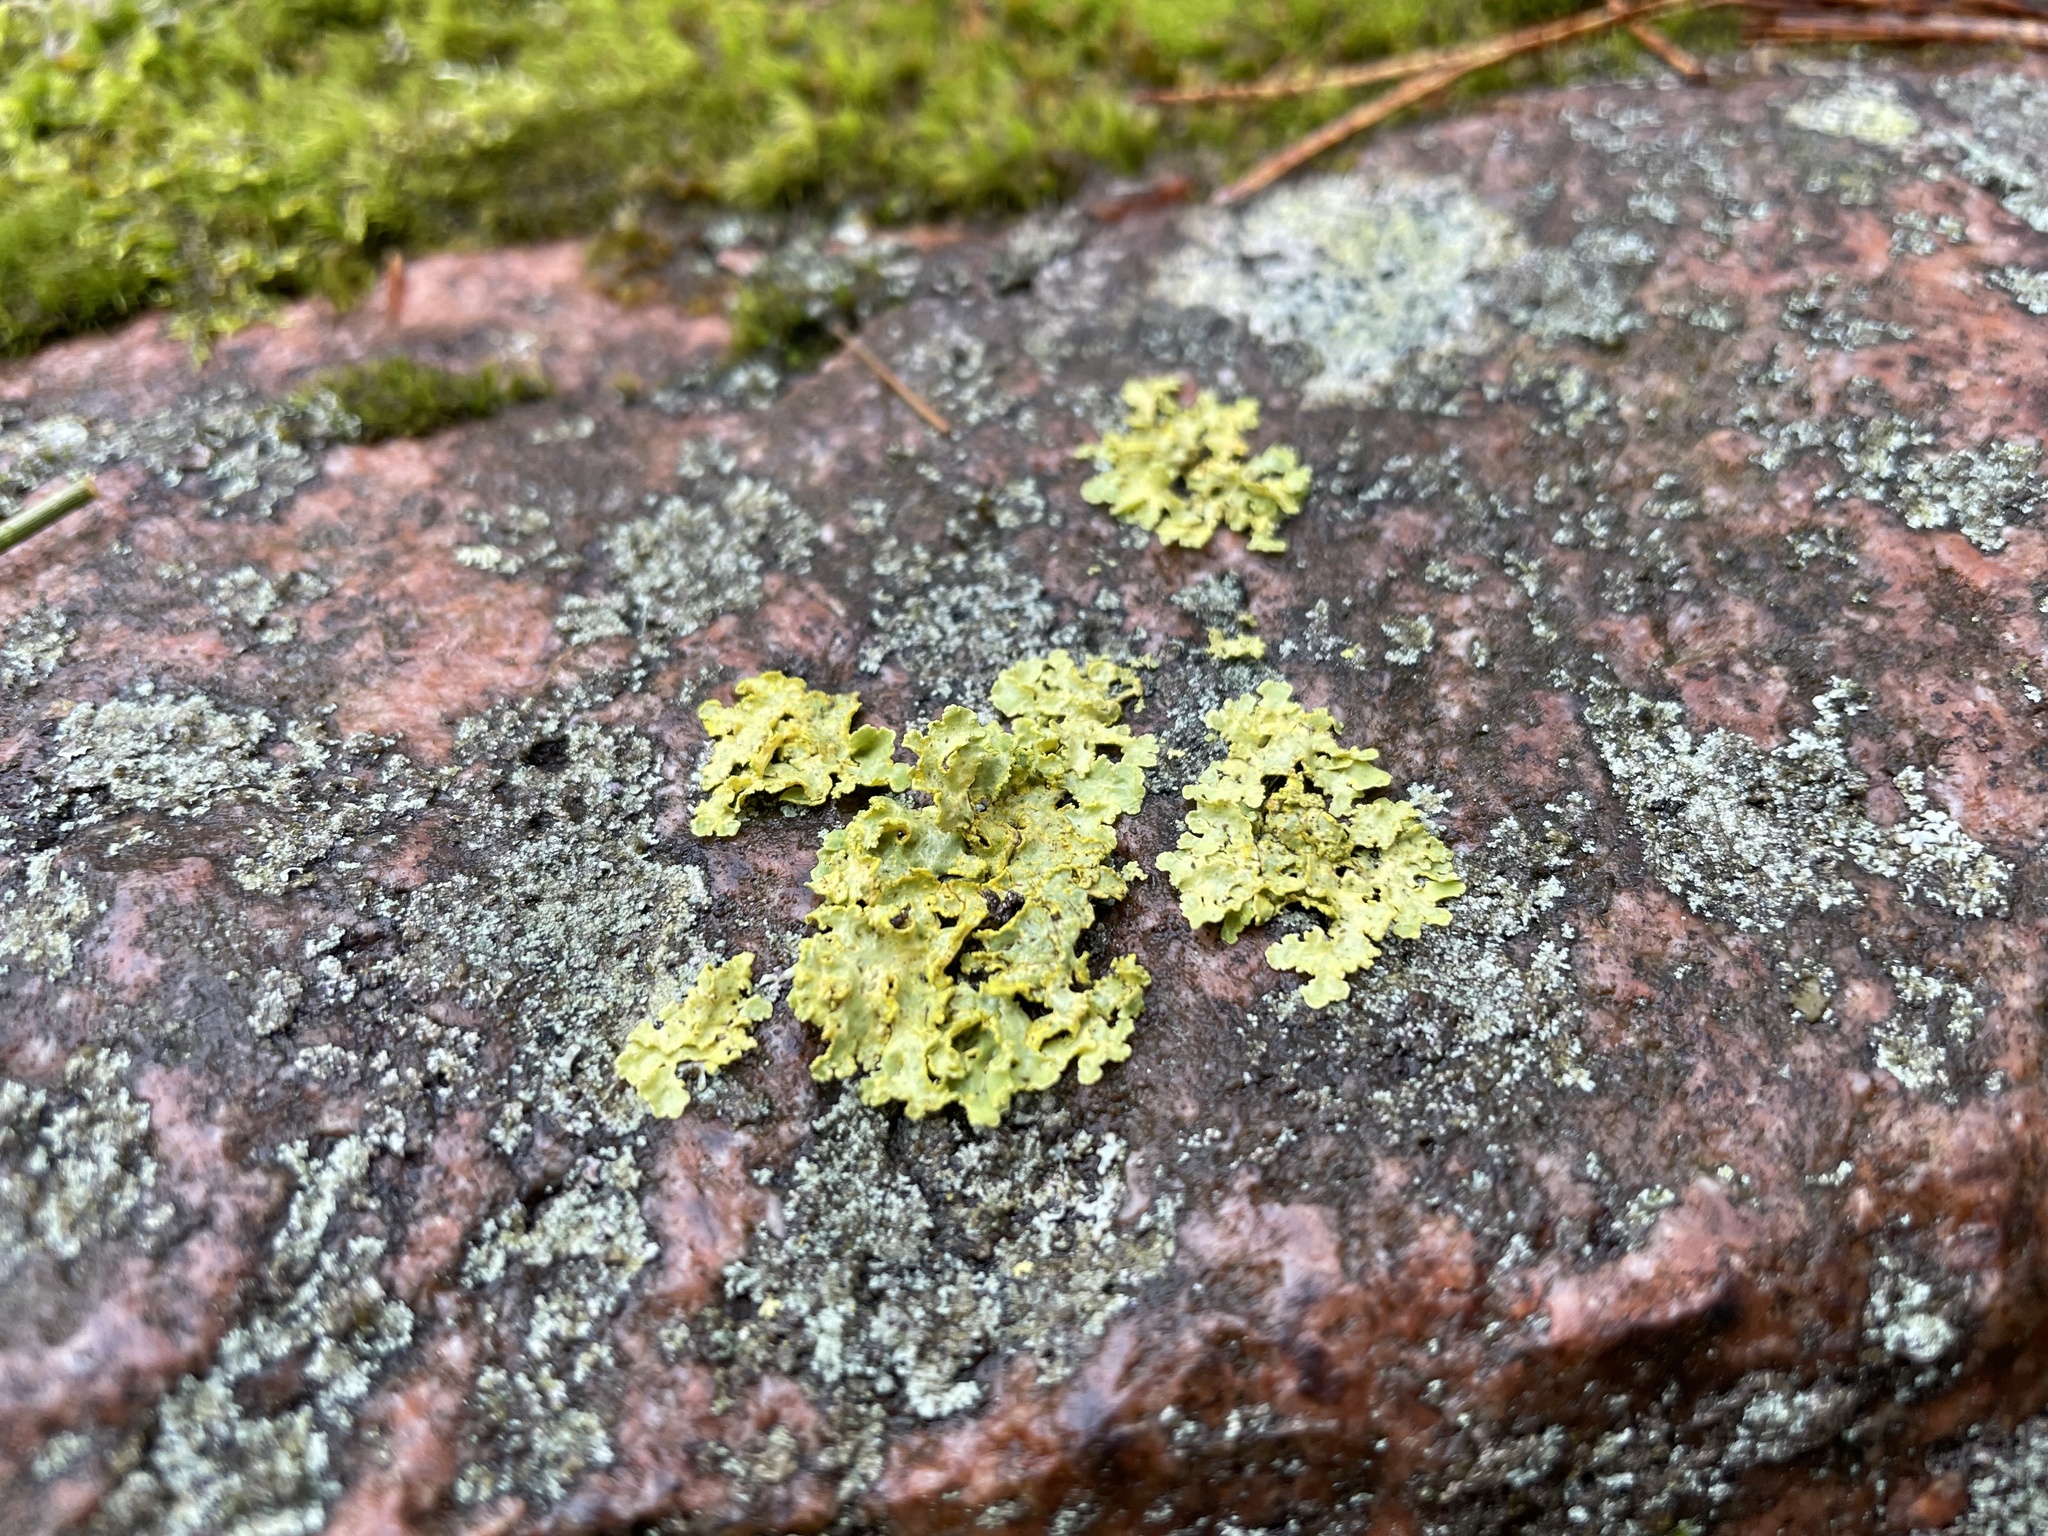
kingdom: Fungi
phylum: Ascomycota
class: Lecanoromycetes
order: Lecanorales
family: Parmeliaceae
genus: Vulpicida
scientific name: Vulpicida pinastri
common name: Powdered sunshine lichen
